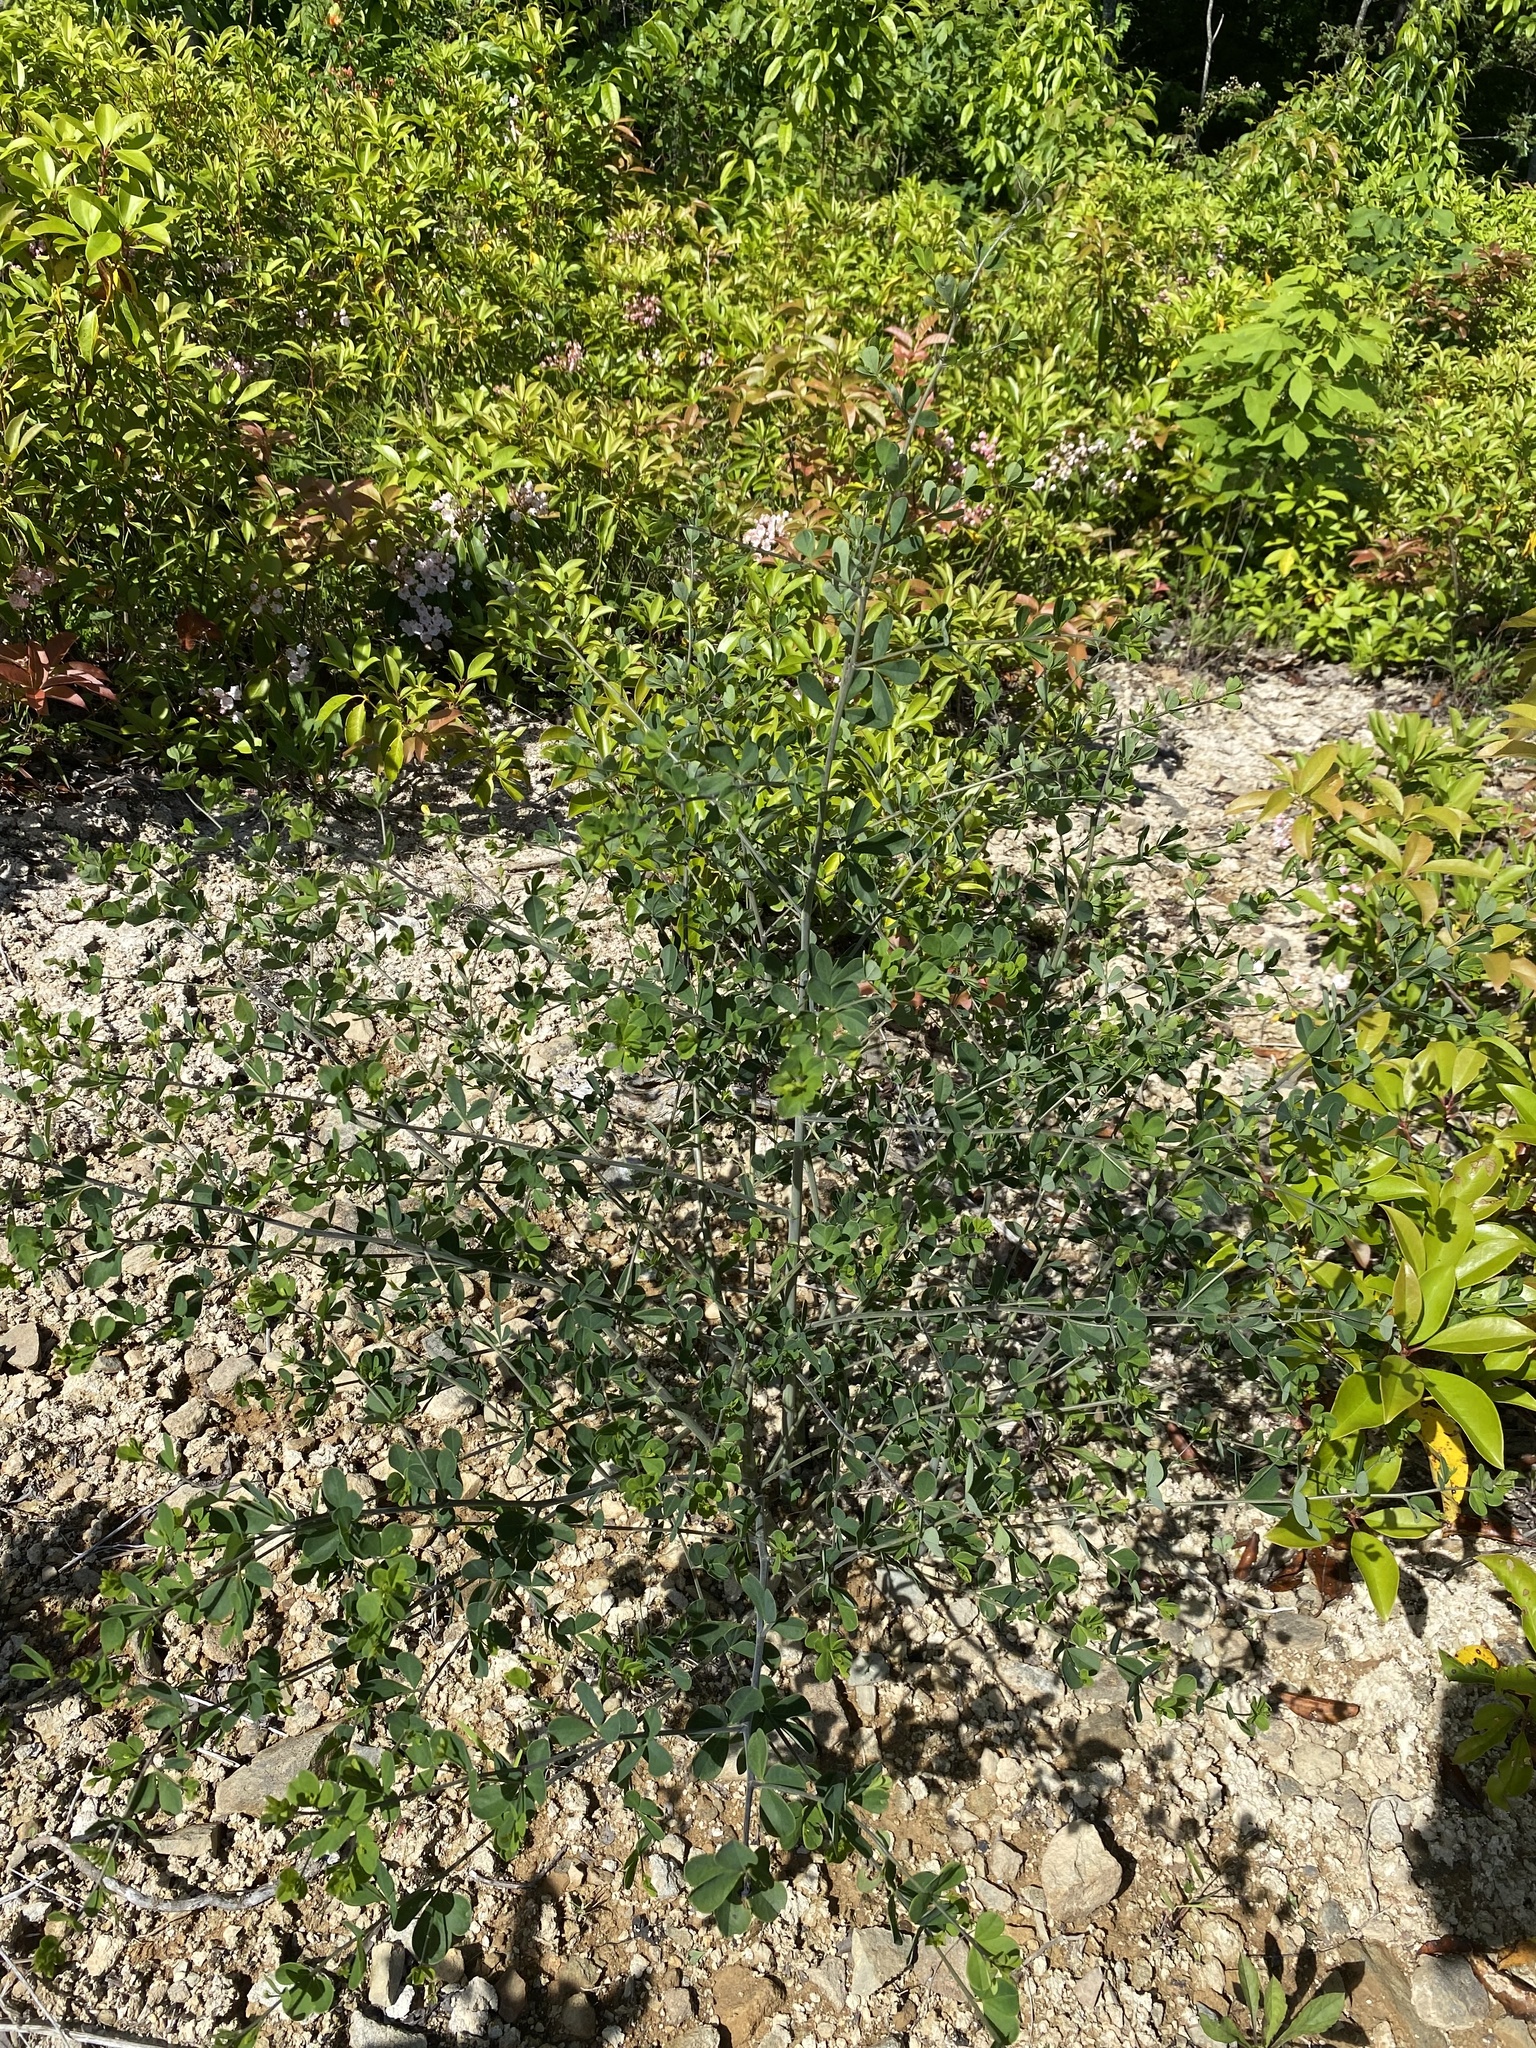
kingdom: Plantae
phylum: Tracheophyta
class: Magnoliopsida
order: Fabales
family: Fabaceae
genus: Baptisia
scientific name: Baptisia tinctoria
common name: Wild indigo
